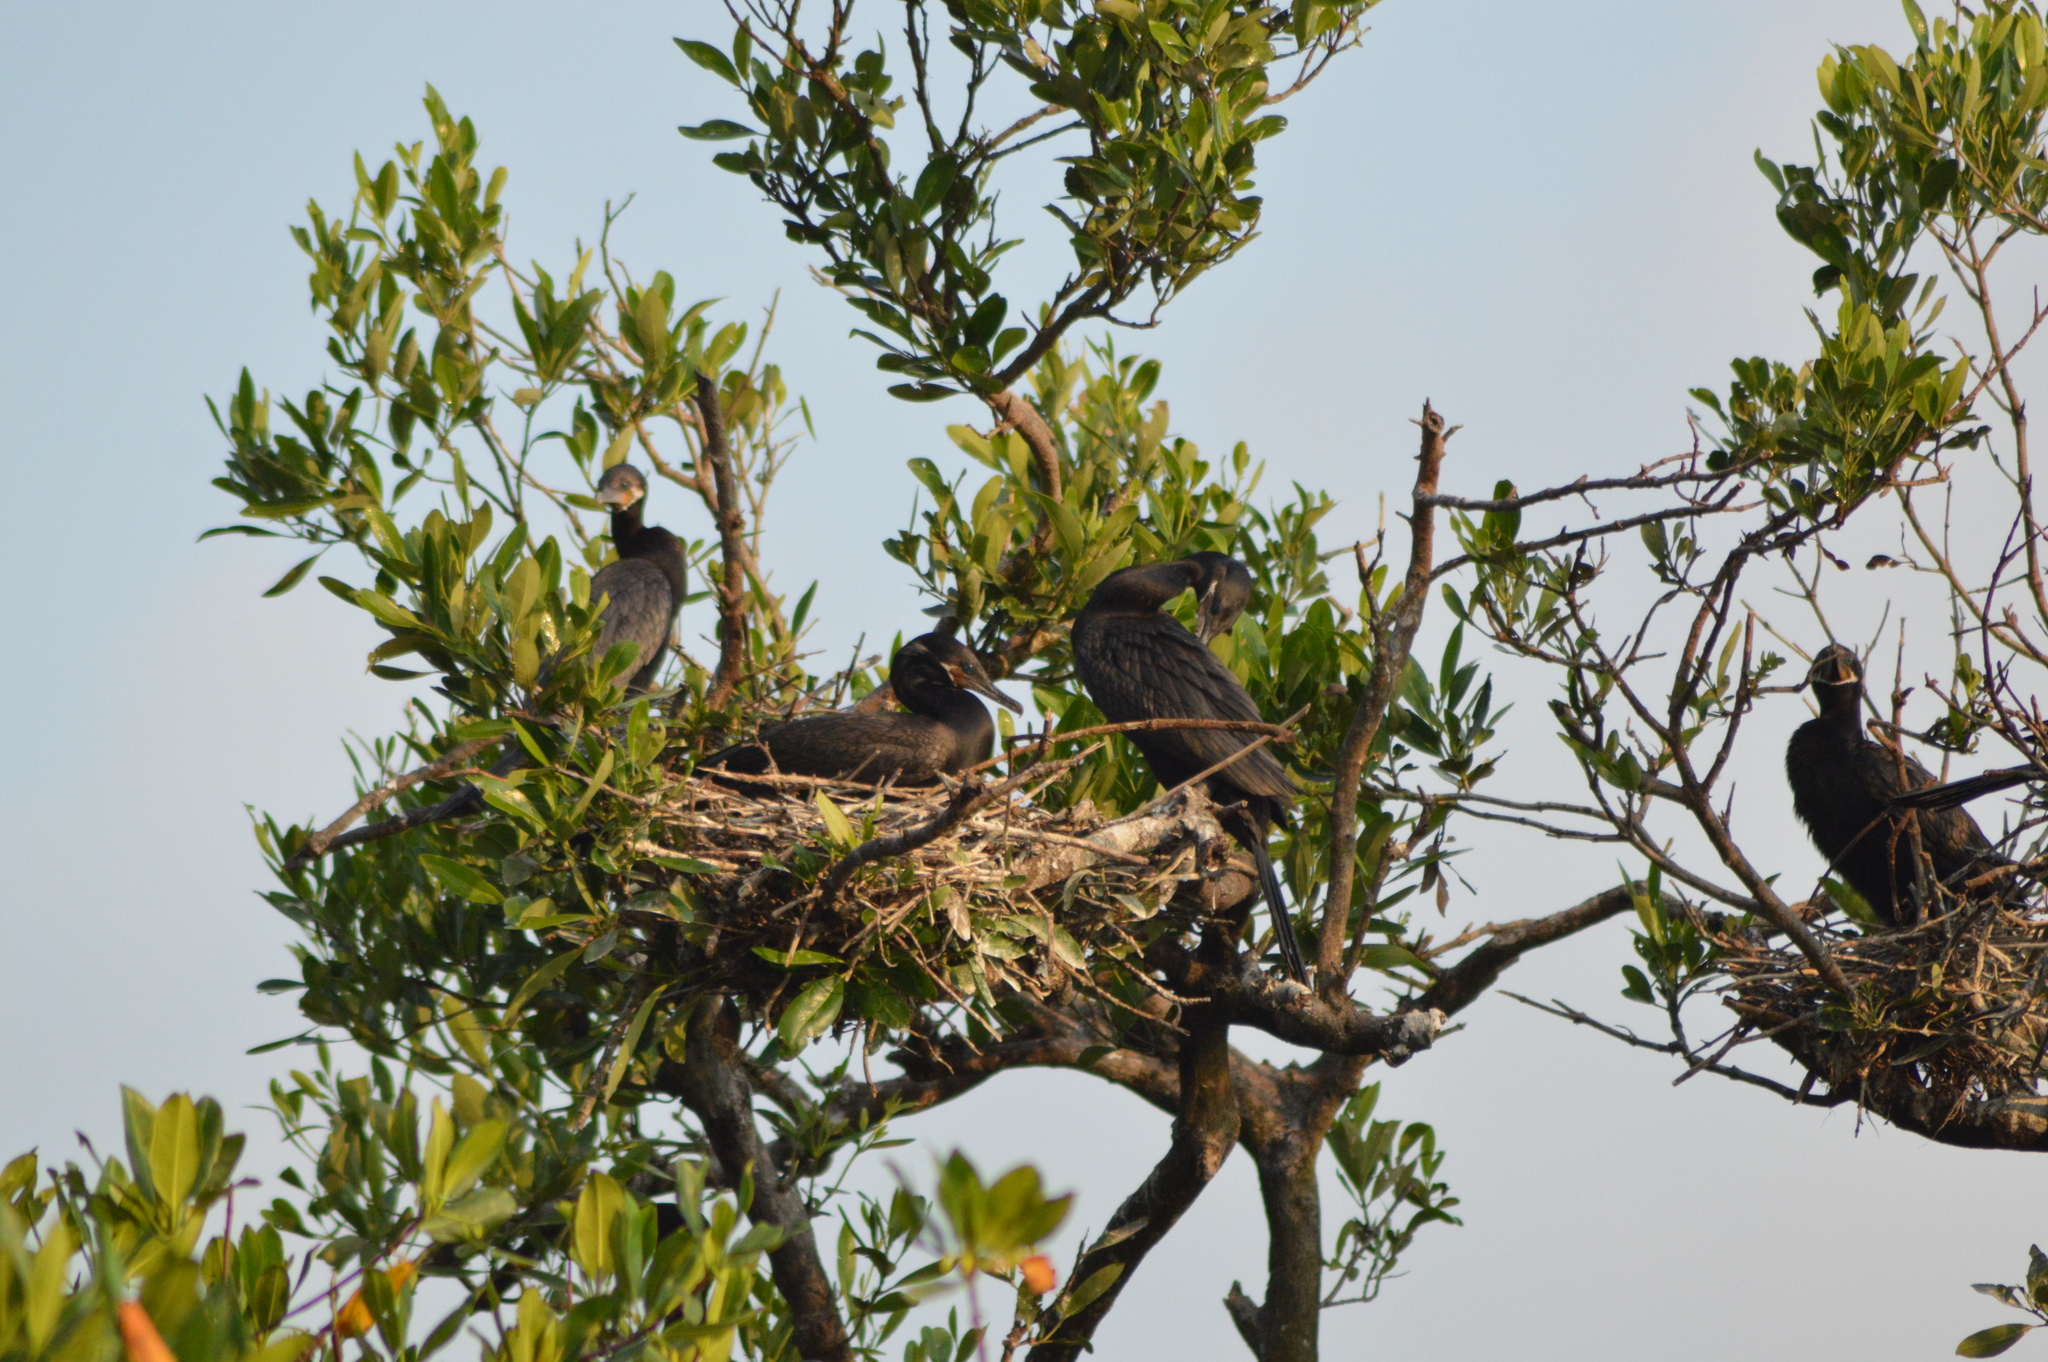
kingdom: Animalia
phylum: Chordata
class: Aves
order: Suliformes
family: Phalacrocoracidae
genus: Phalacrocorax
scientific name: Phalacrocorax brasilianus
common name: Neotropic cormorant
